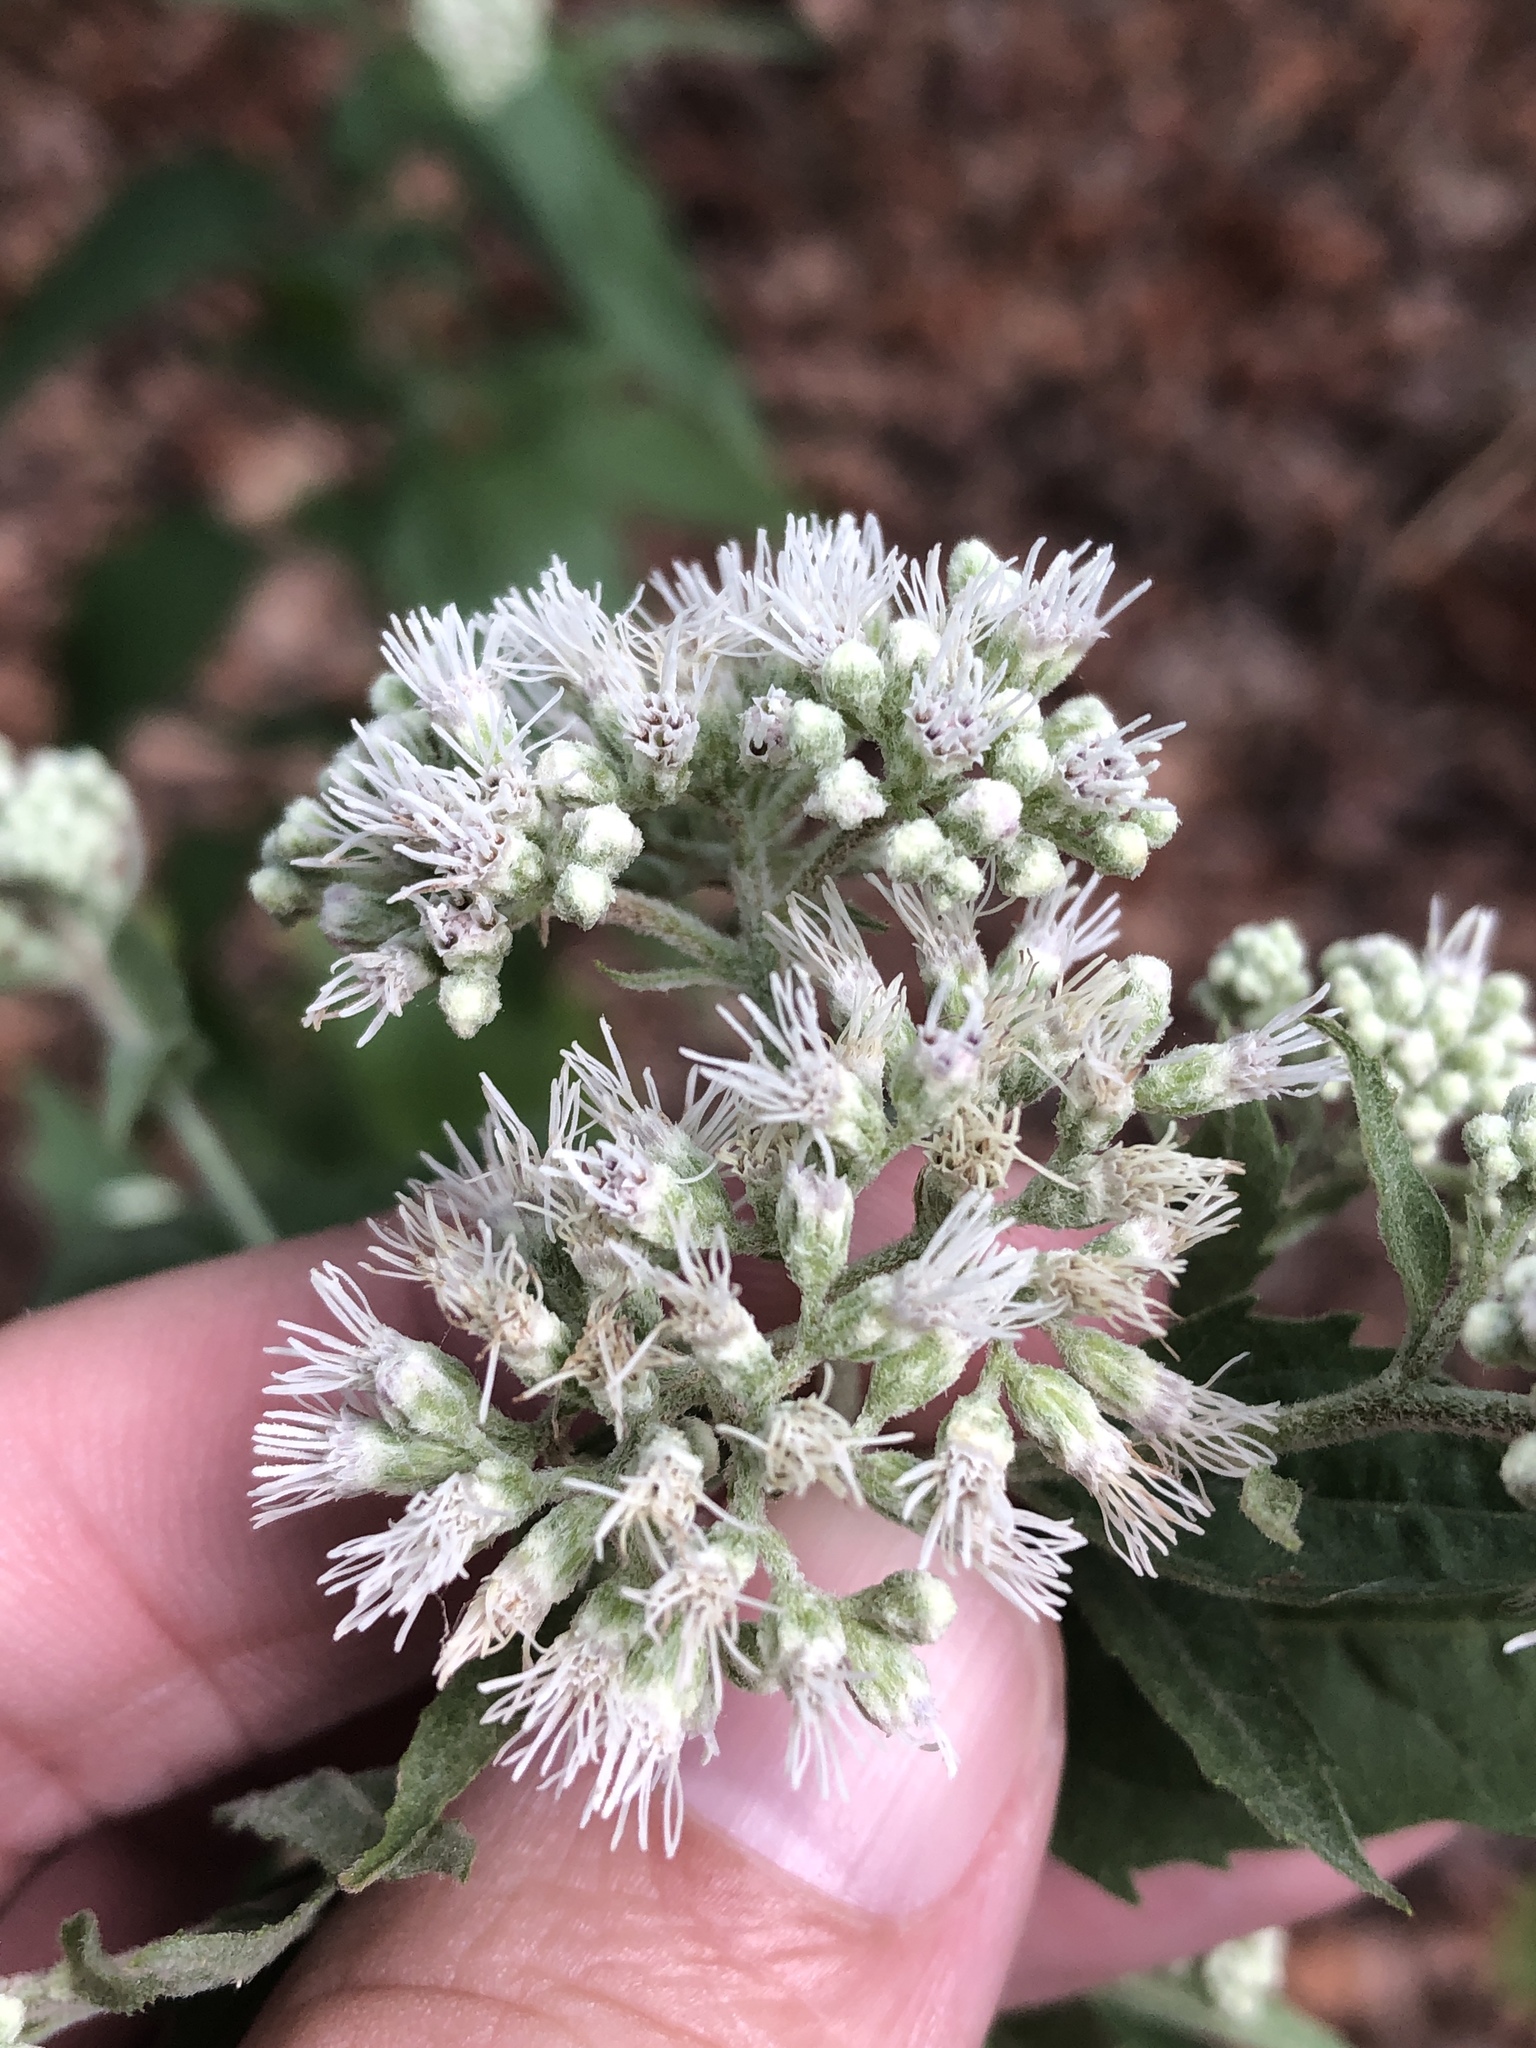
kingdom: Plantae
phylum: Tracheophyta
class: Magnoliopsida
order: Asterales
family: Asteraceae
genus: Eupatorium
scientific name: Eupatorium serotinum
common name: Late boneset
